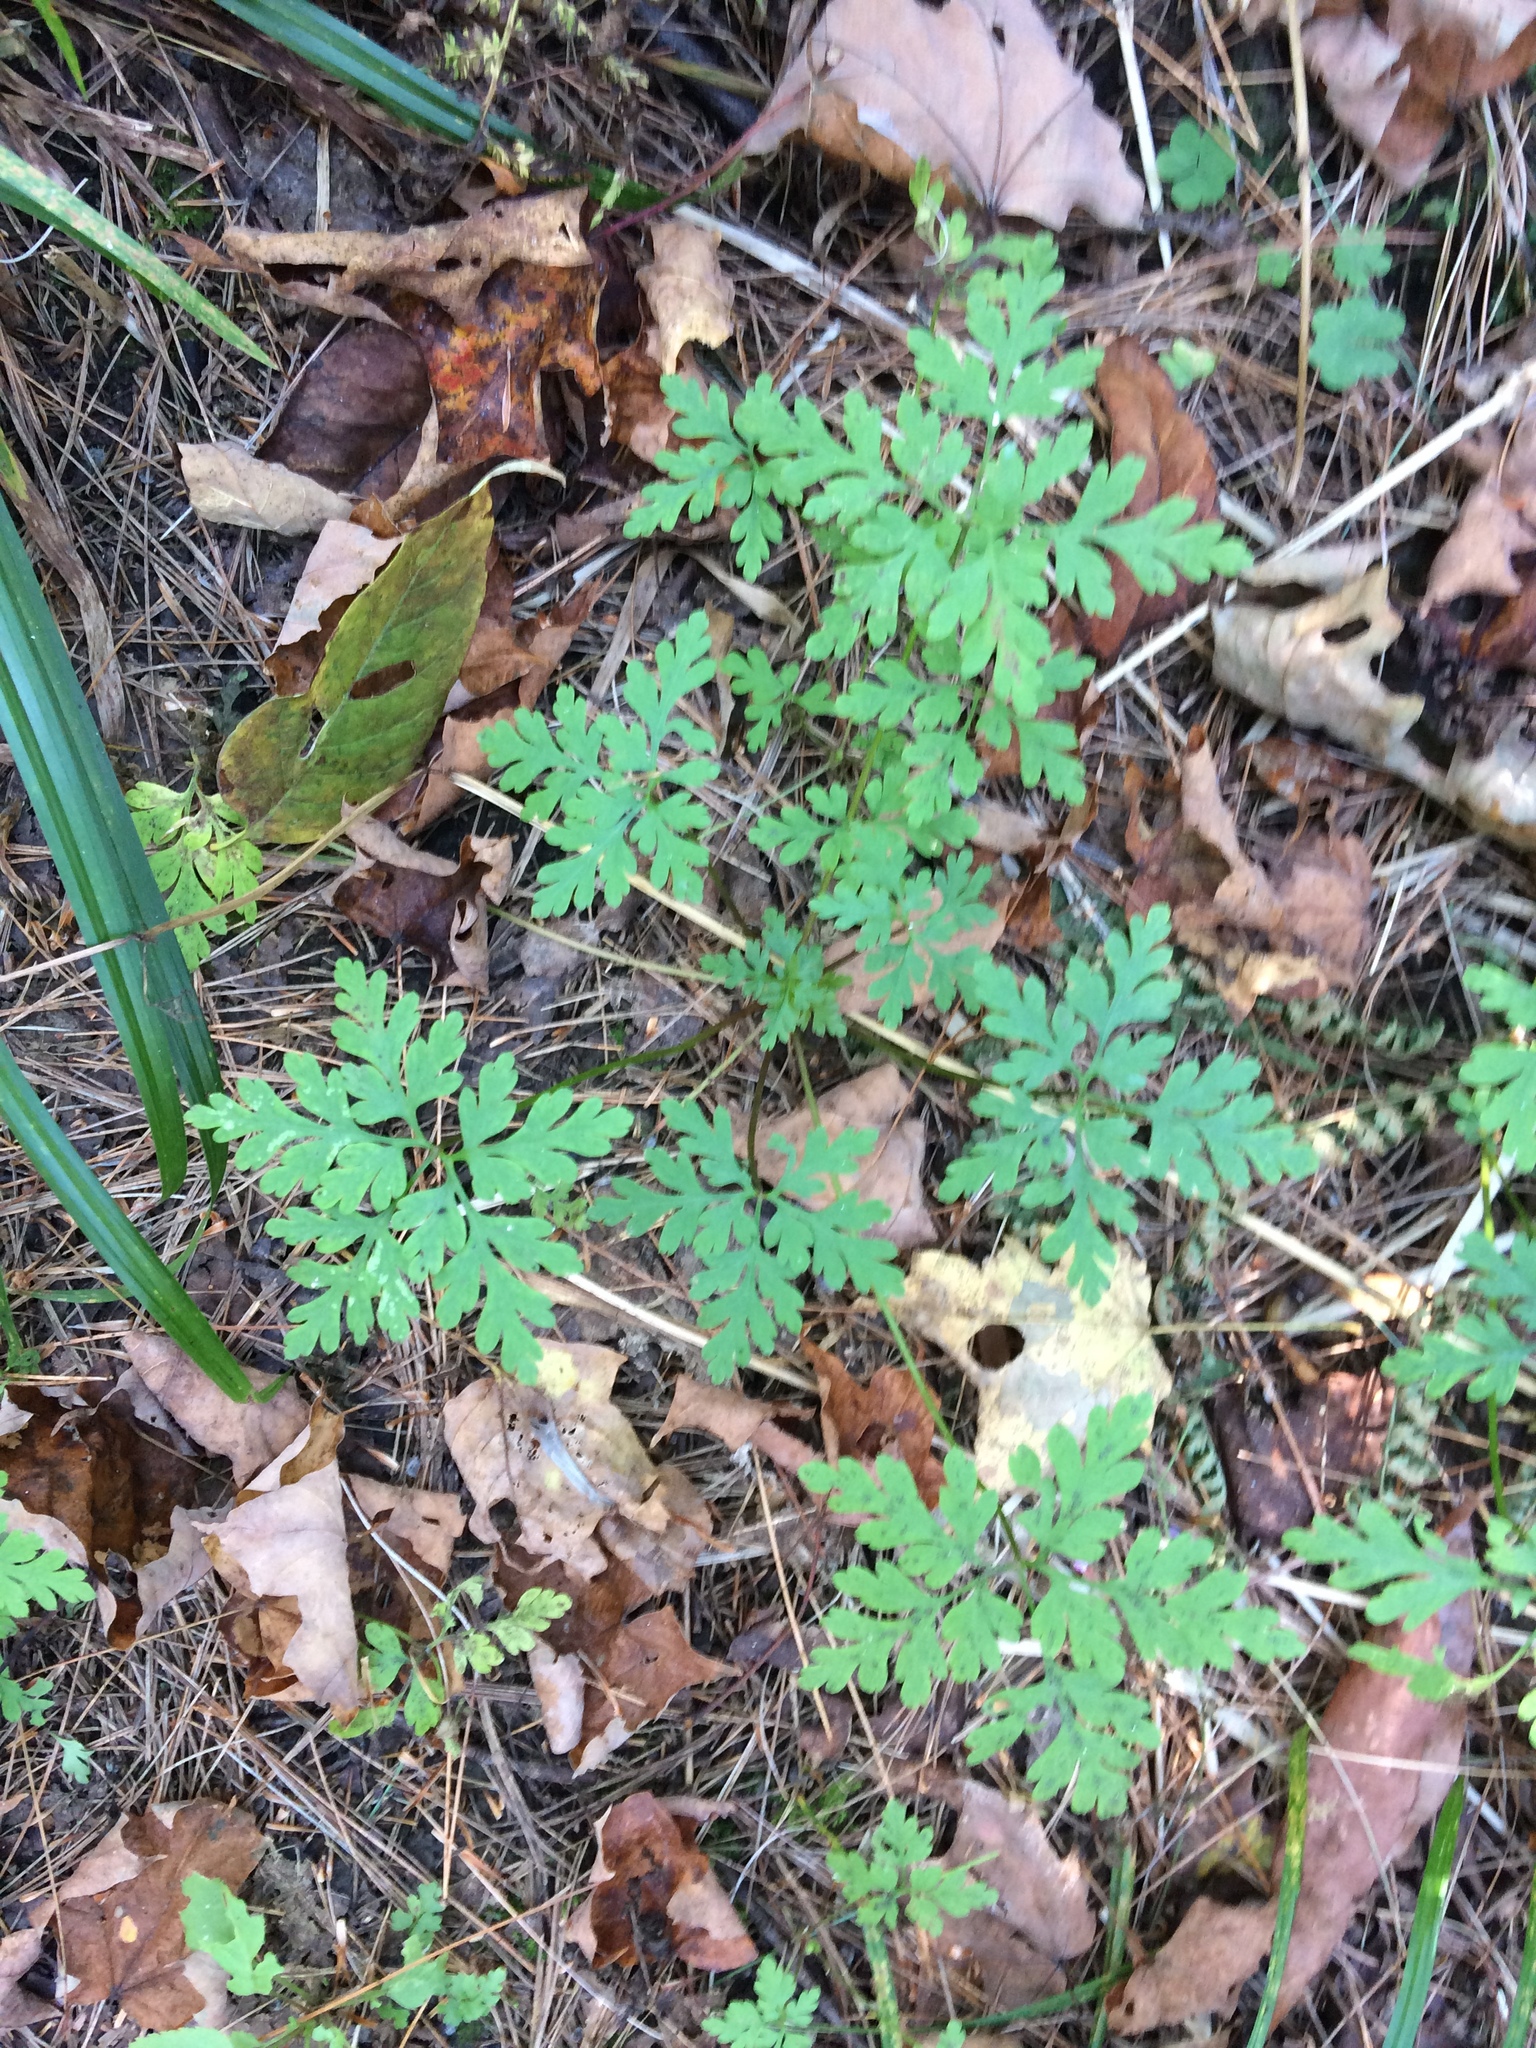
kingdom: Plantae
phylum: Tracheophyta
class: Magnoliopsida
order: Geraniales
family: Geraniaceae
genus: Geranium
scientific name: Geranium robertianum
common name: Herb-robert
